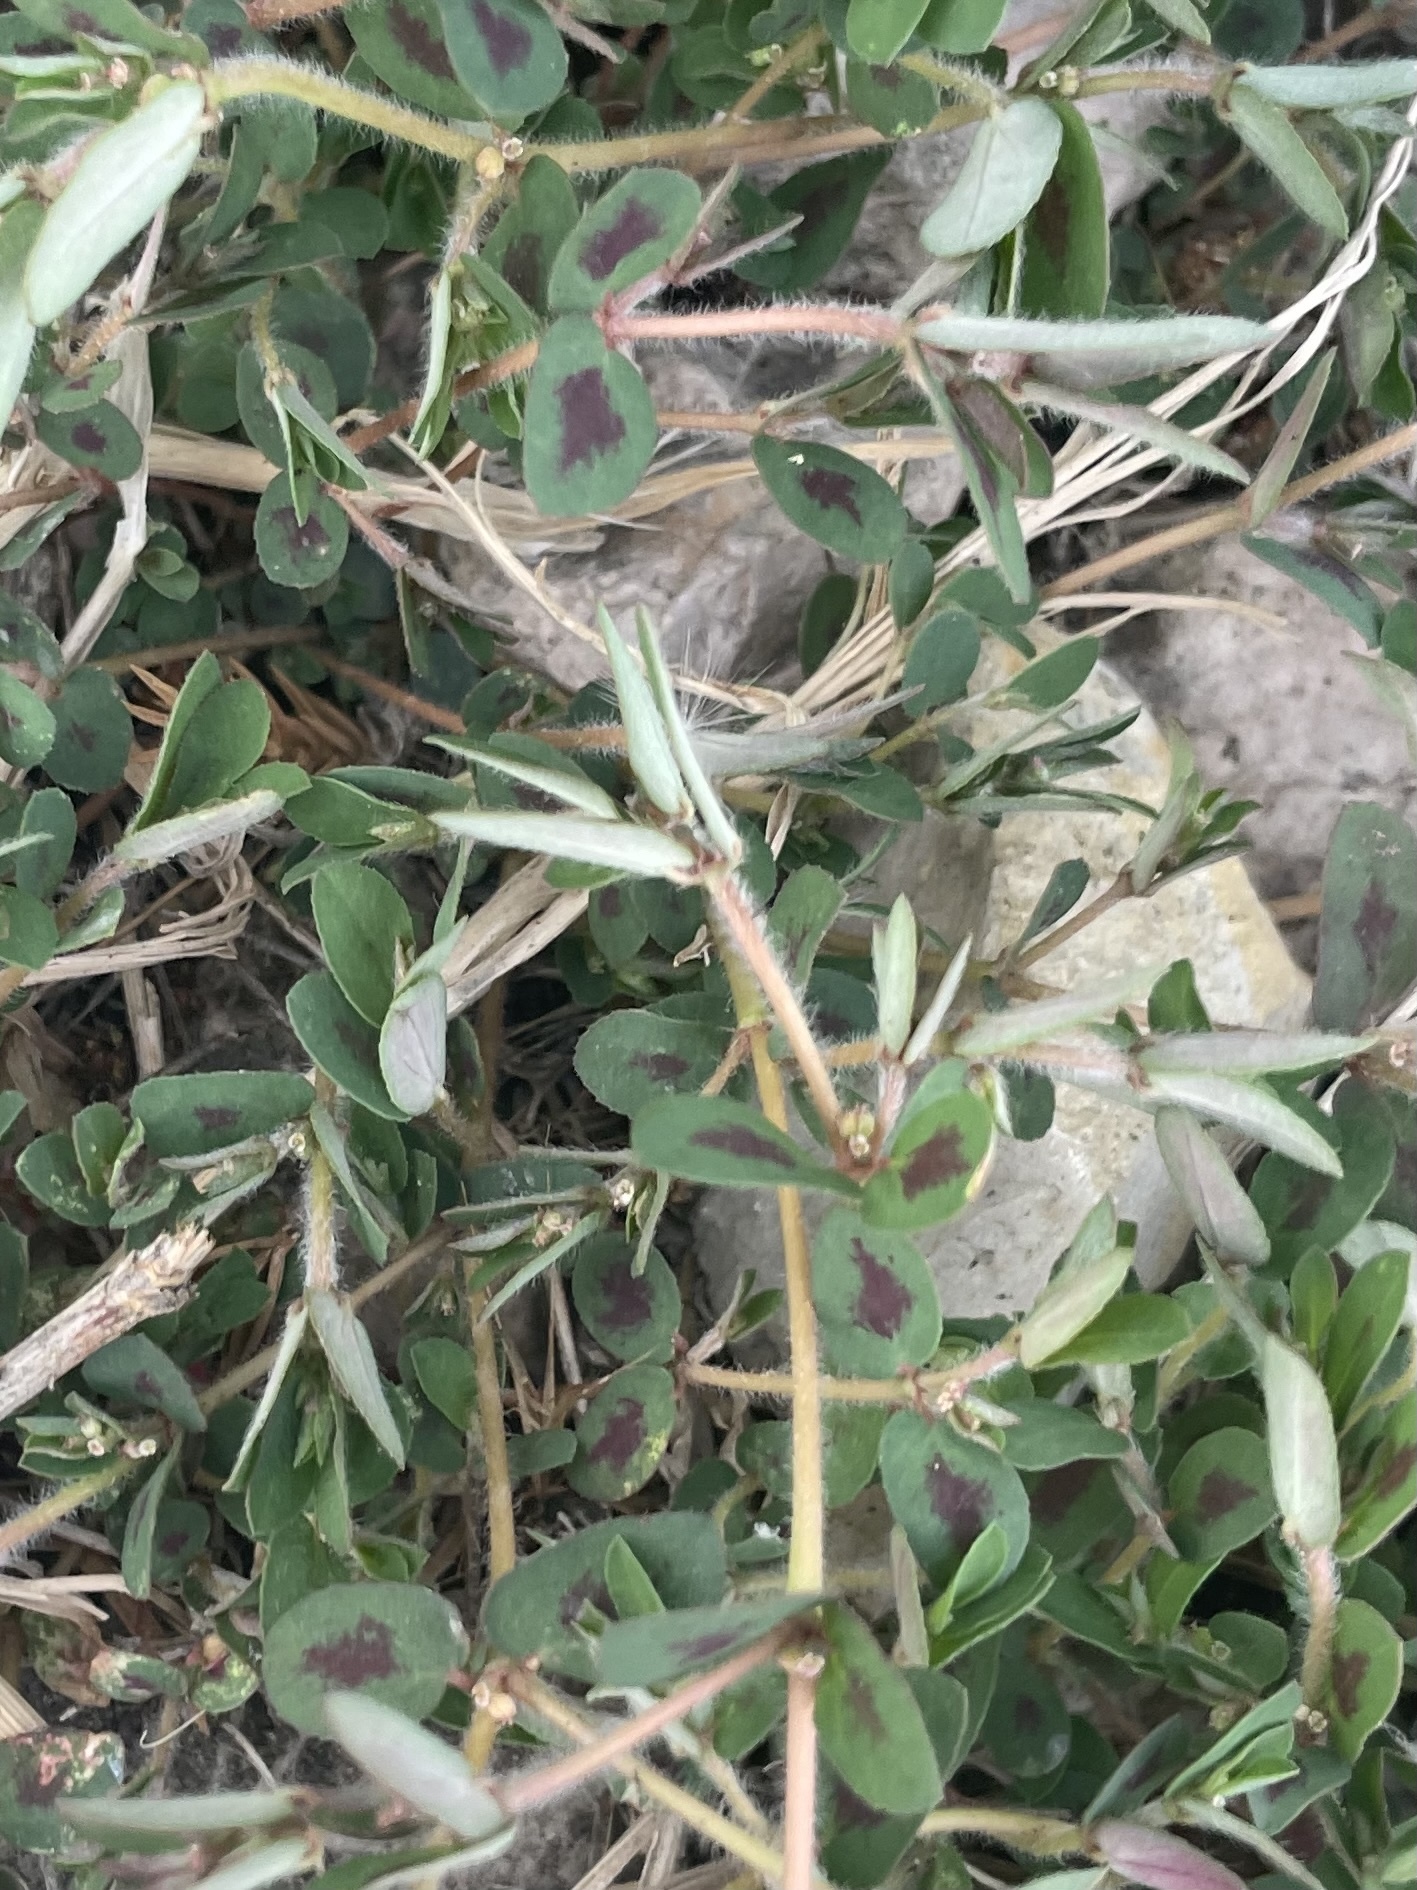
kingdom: Plantae
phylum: Tracheophyta
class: Magnoliopsida
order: Malpighiales
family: Euphorbiaceae
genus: Euphorbia
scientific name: Euphorbia maculata
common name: Spotted spurge
